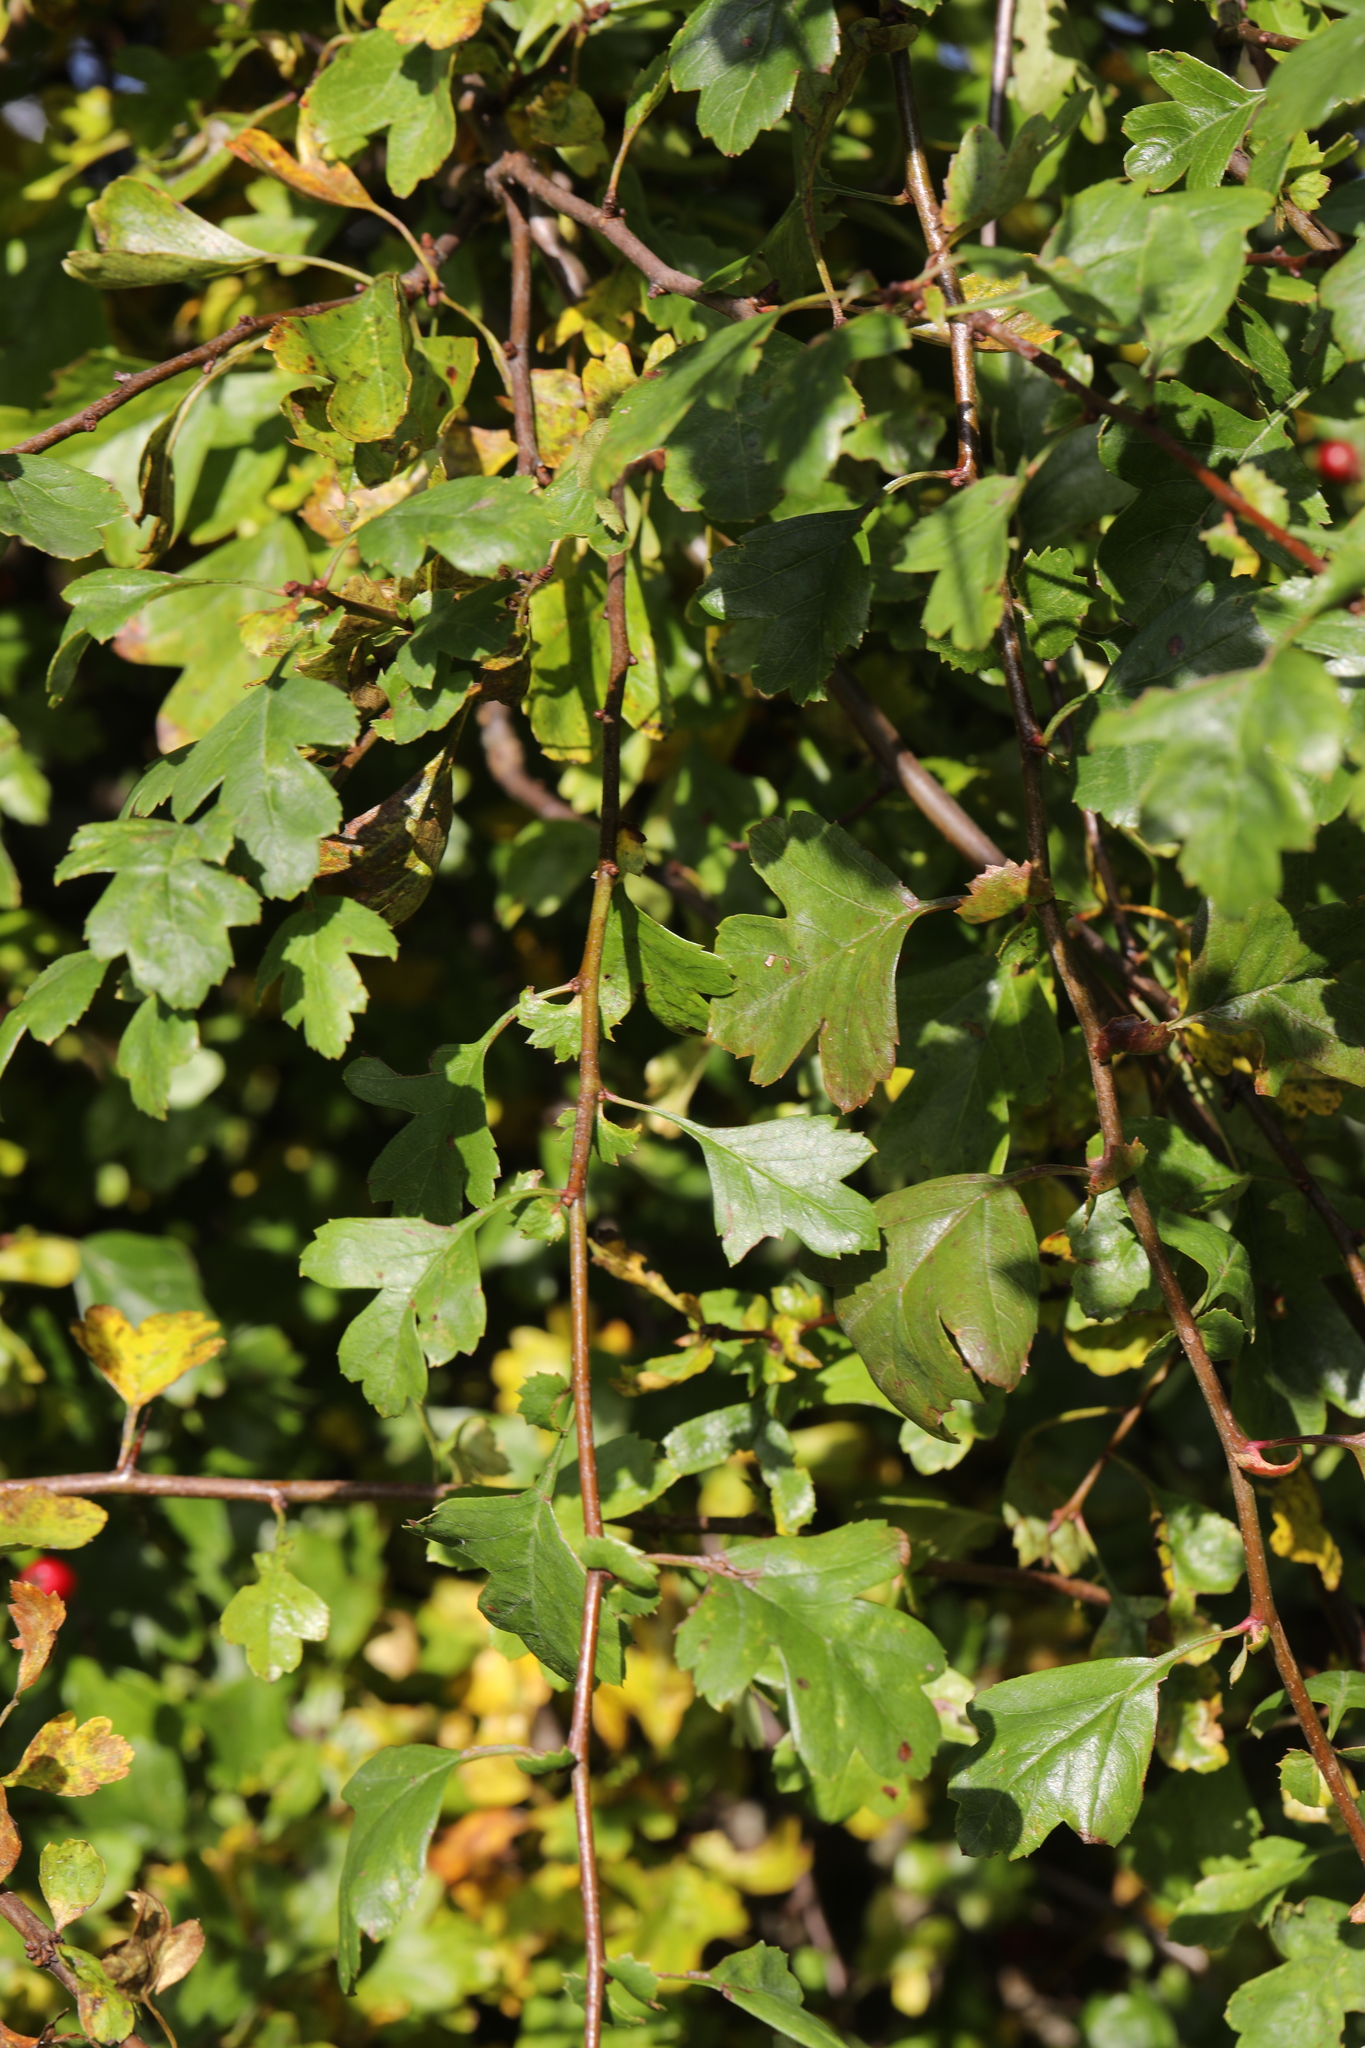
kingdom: Plantae
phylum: Tracheophyta
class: Magnoliopsida
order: Rosales
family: Rosaceae
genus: Crataegus
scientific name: Crataegus monogyna
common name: Hawthorn
